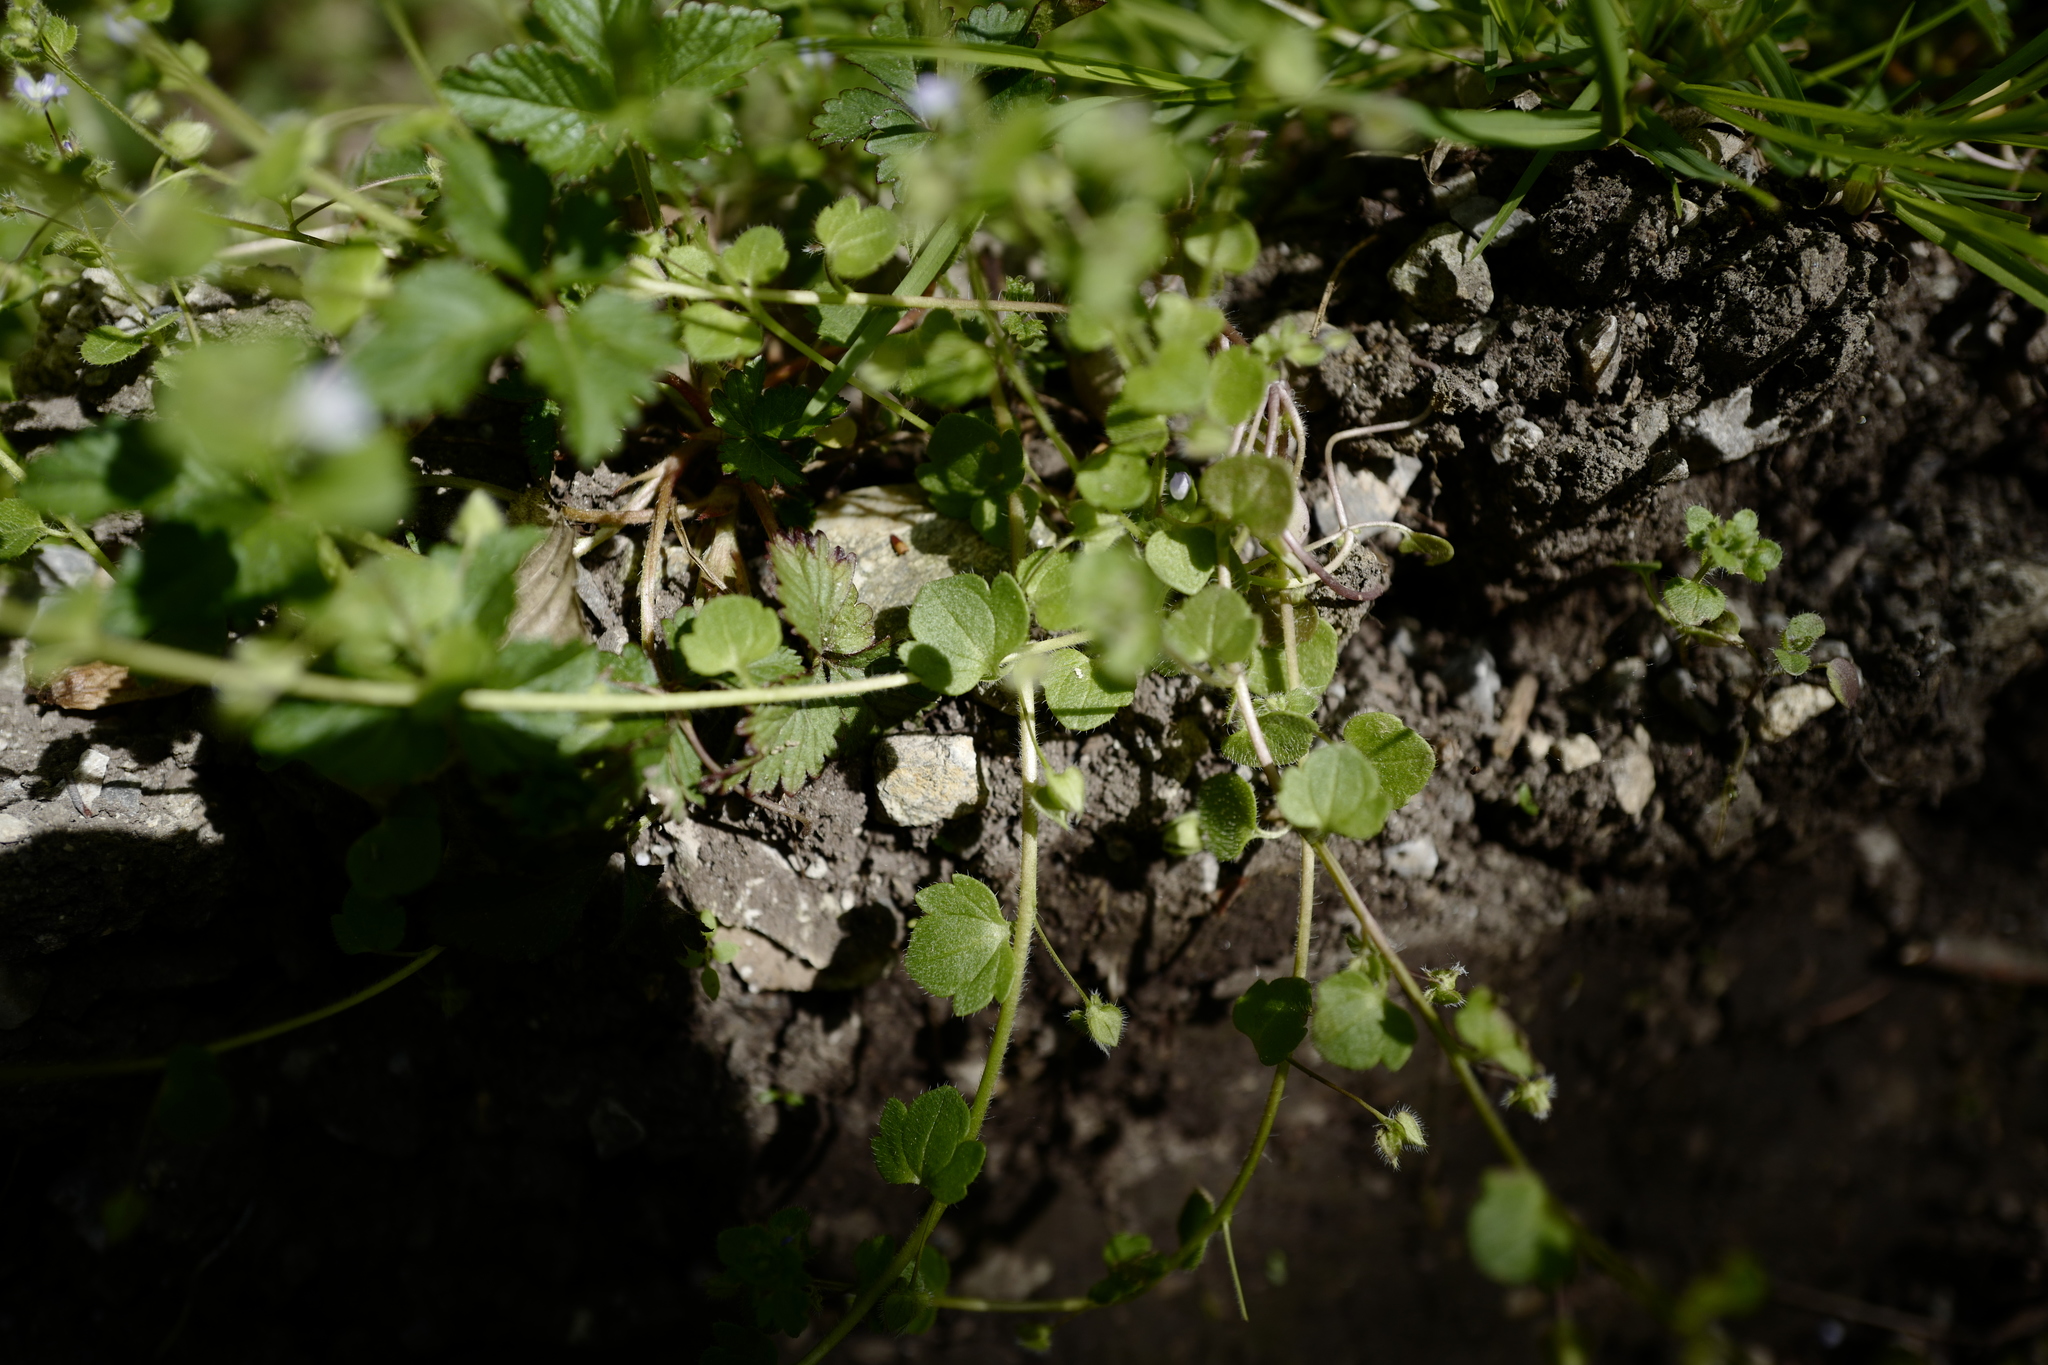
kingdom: Plantae
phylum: Tracheophyta
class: Magnoliopsida
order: Lamiales
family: Plantaginaceae
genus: Veronica
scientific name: Veronica sublobata
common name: False ivy-leaved speedwell
